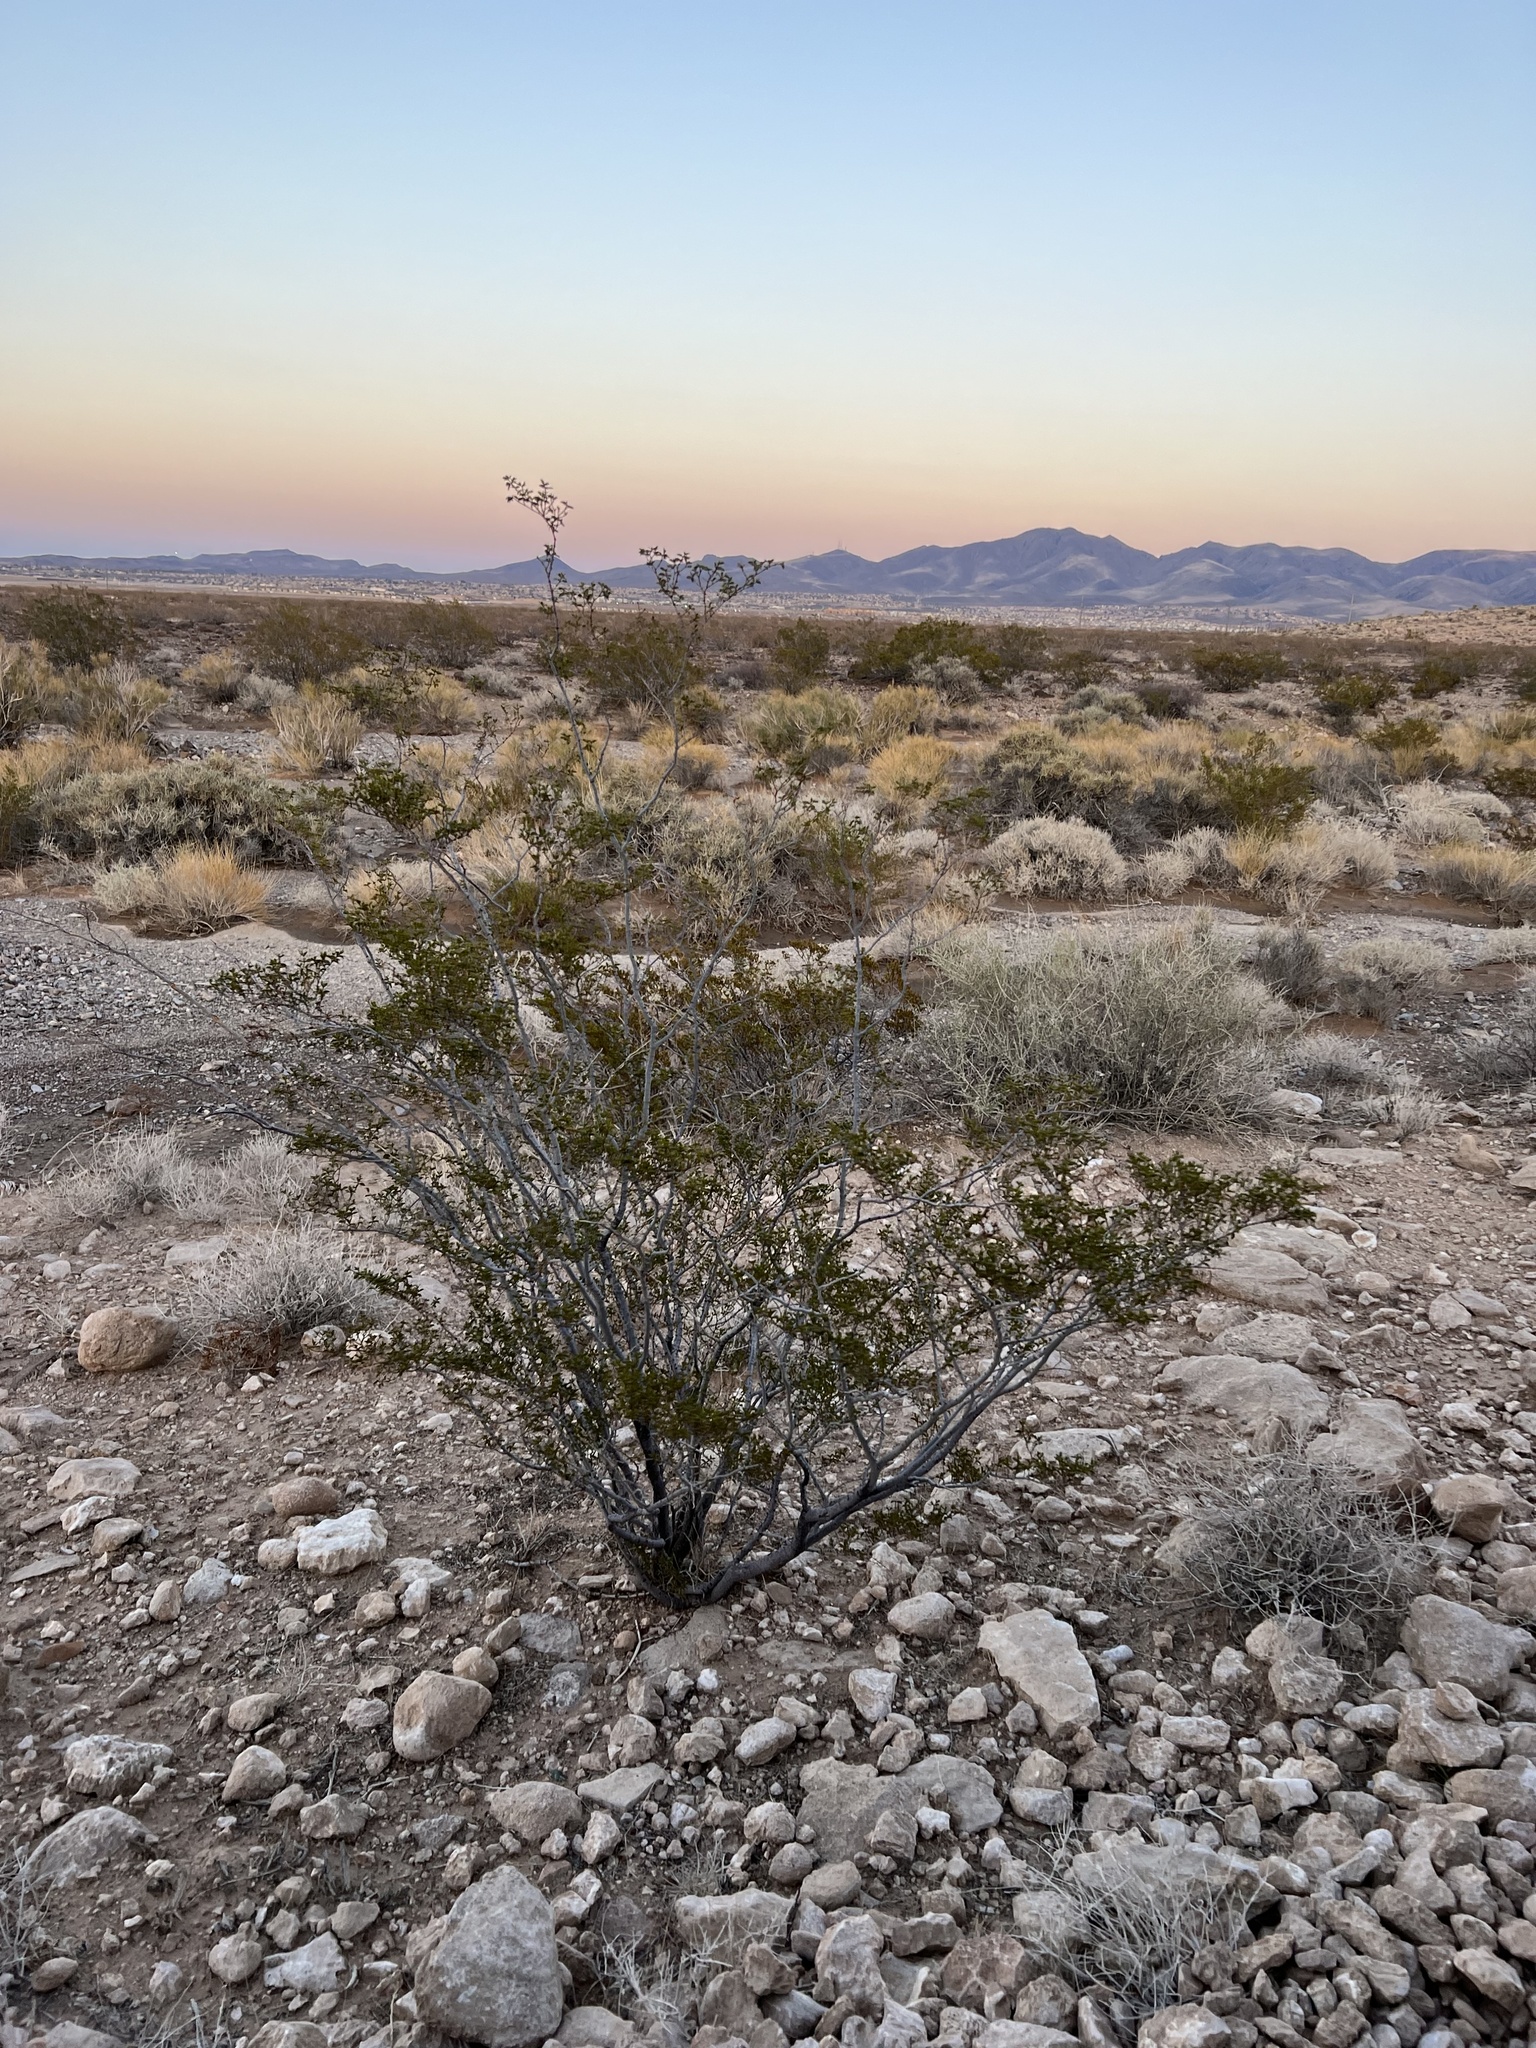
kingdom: Plantae
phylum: Tracheophyta
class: Magnoliopsida
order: Zygophyllales
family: Zygophyllaceae
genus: Larrea
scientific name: Larrea tridentata
